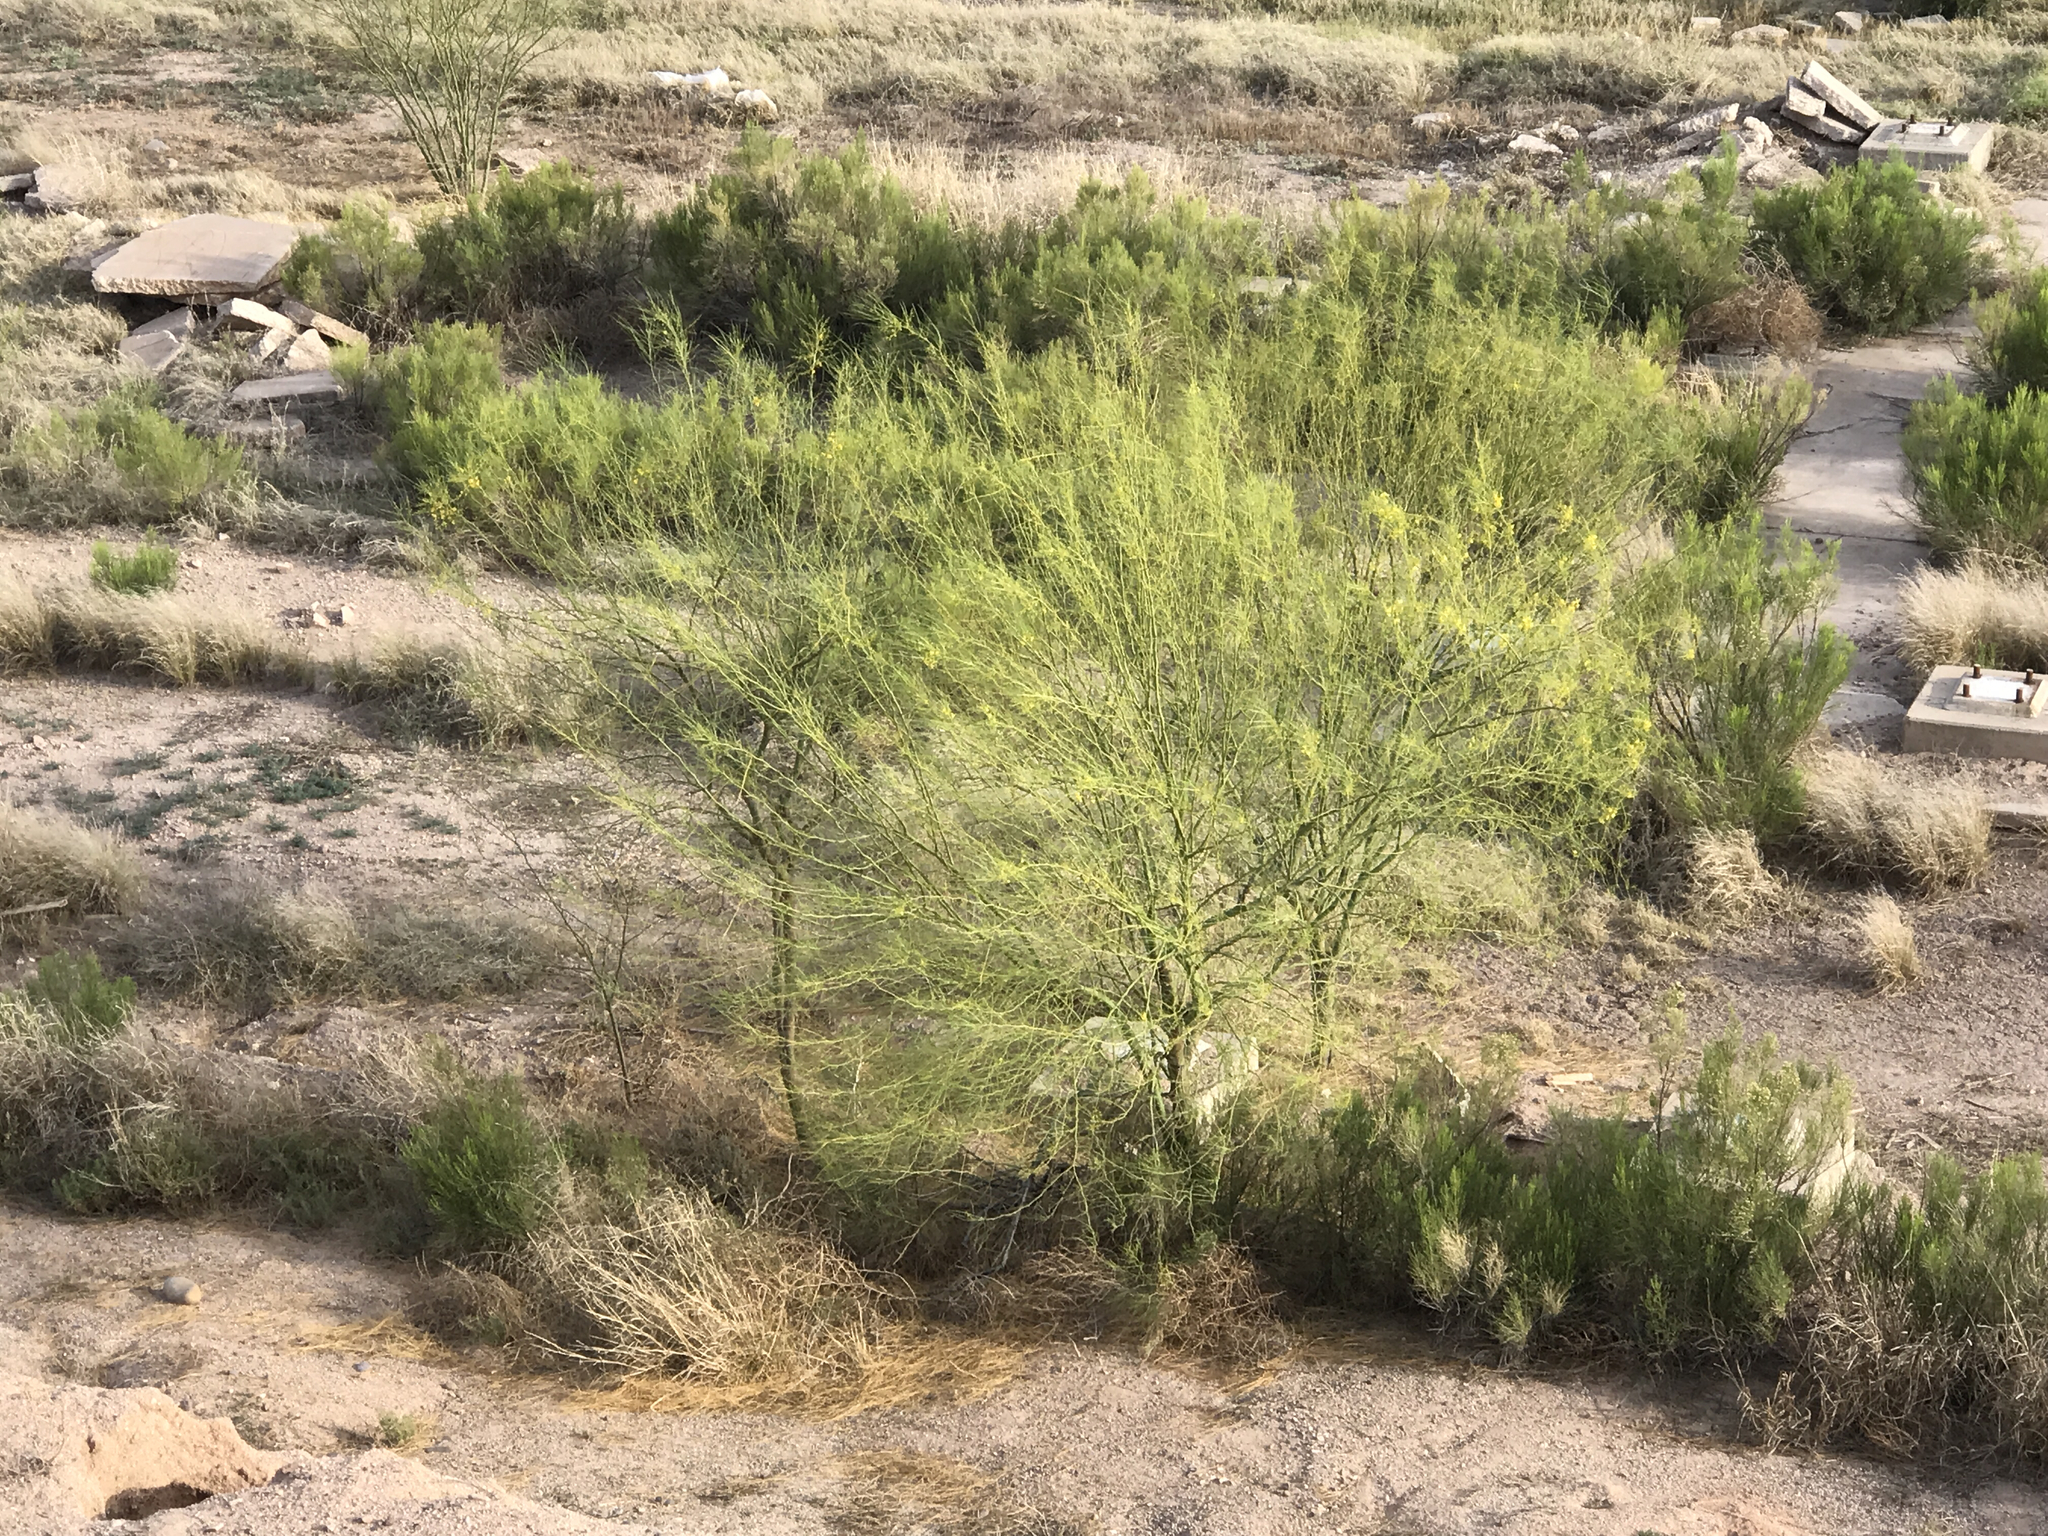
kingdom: Plantae
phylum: Tracheophyta
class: Magnoliopsida
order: Fabales
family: Fabaceae
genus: Parkinsonia
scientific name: Parkinsonia aculeata
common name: Jerusalem thorn
